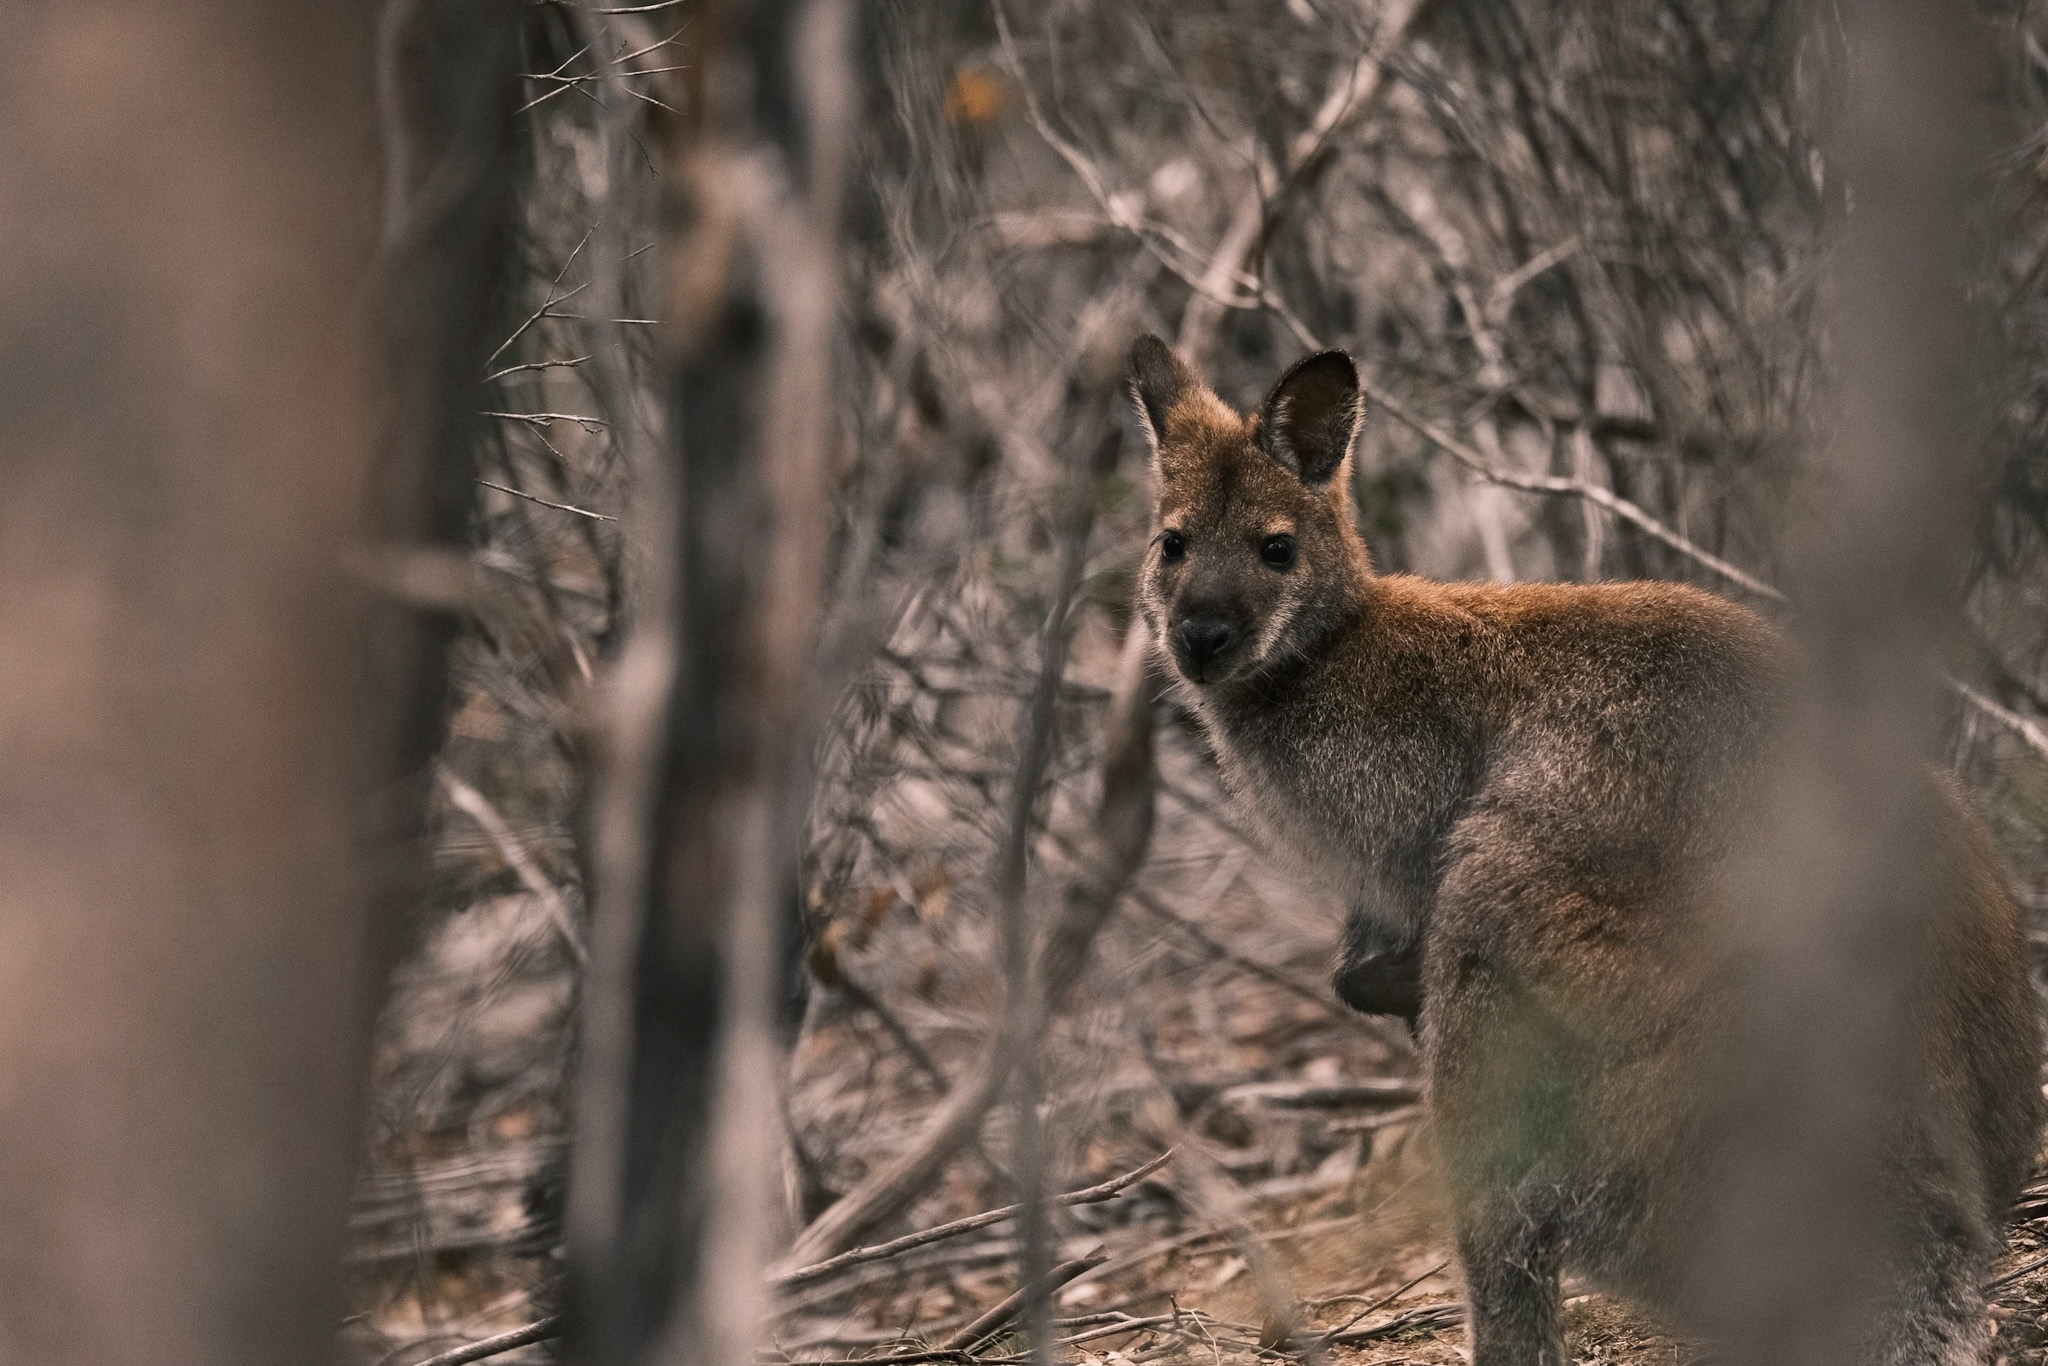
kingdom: Animalia
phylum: Chordata
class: Mammalia
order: Diprotodontia
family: Macropodidae
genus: Notamacropus
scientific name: Notamacropus rufogriseus
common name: Red-necked wallaby
